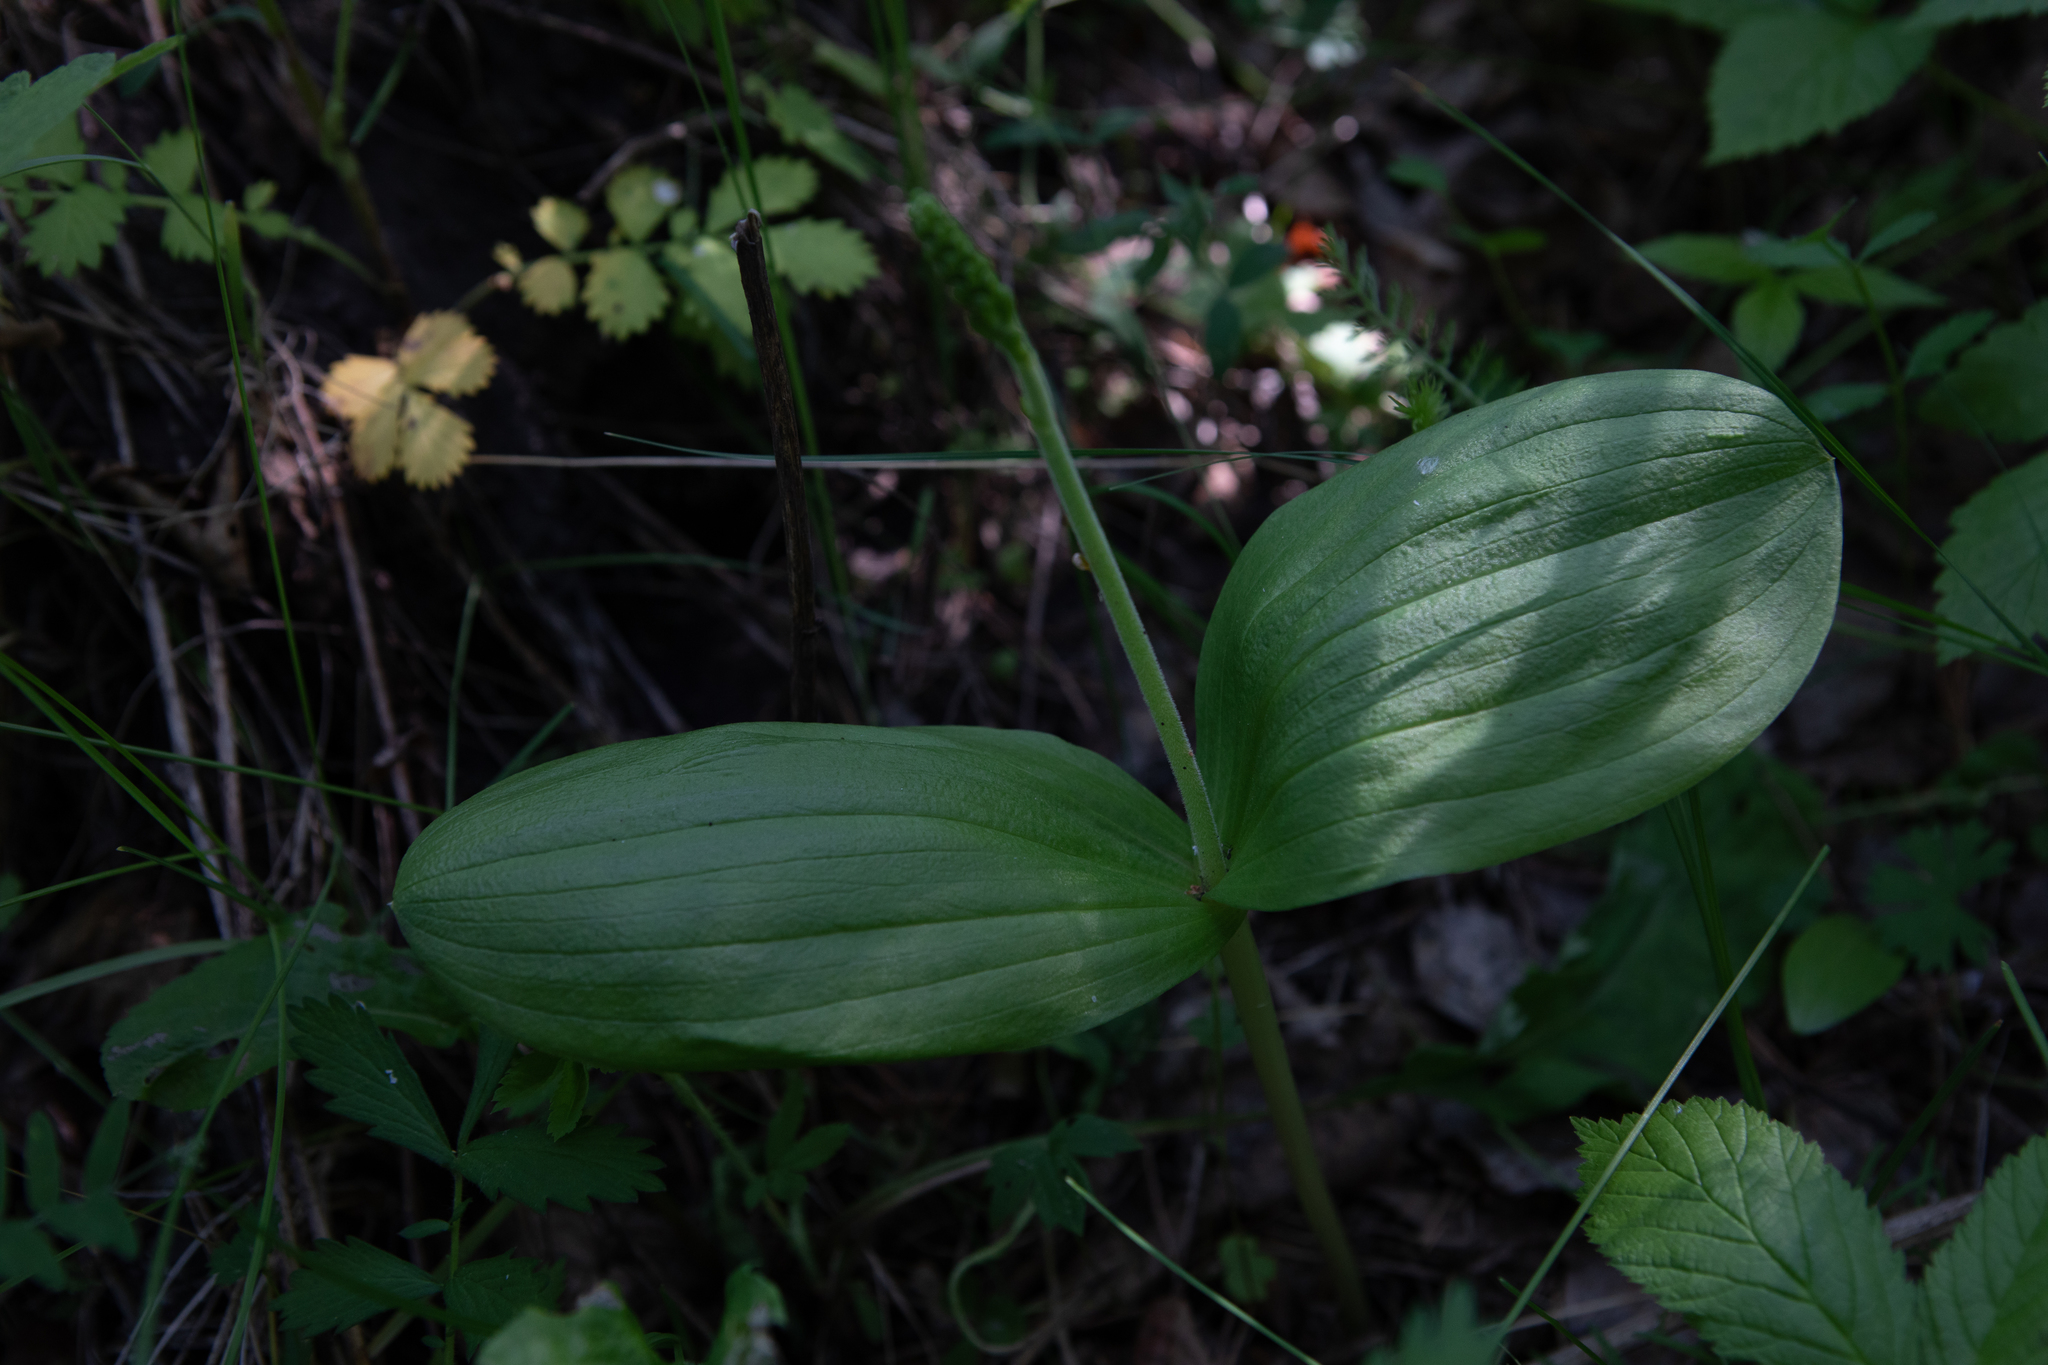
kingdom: Plantae
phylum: Tracheophyta
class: Liliopsida
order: Asparagales
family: Orchidaceae
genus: Neottia
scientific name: Neottia ovata
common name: Common twayblade
